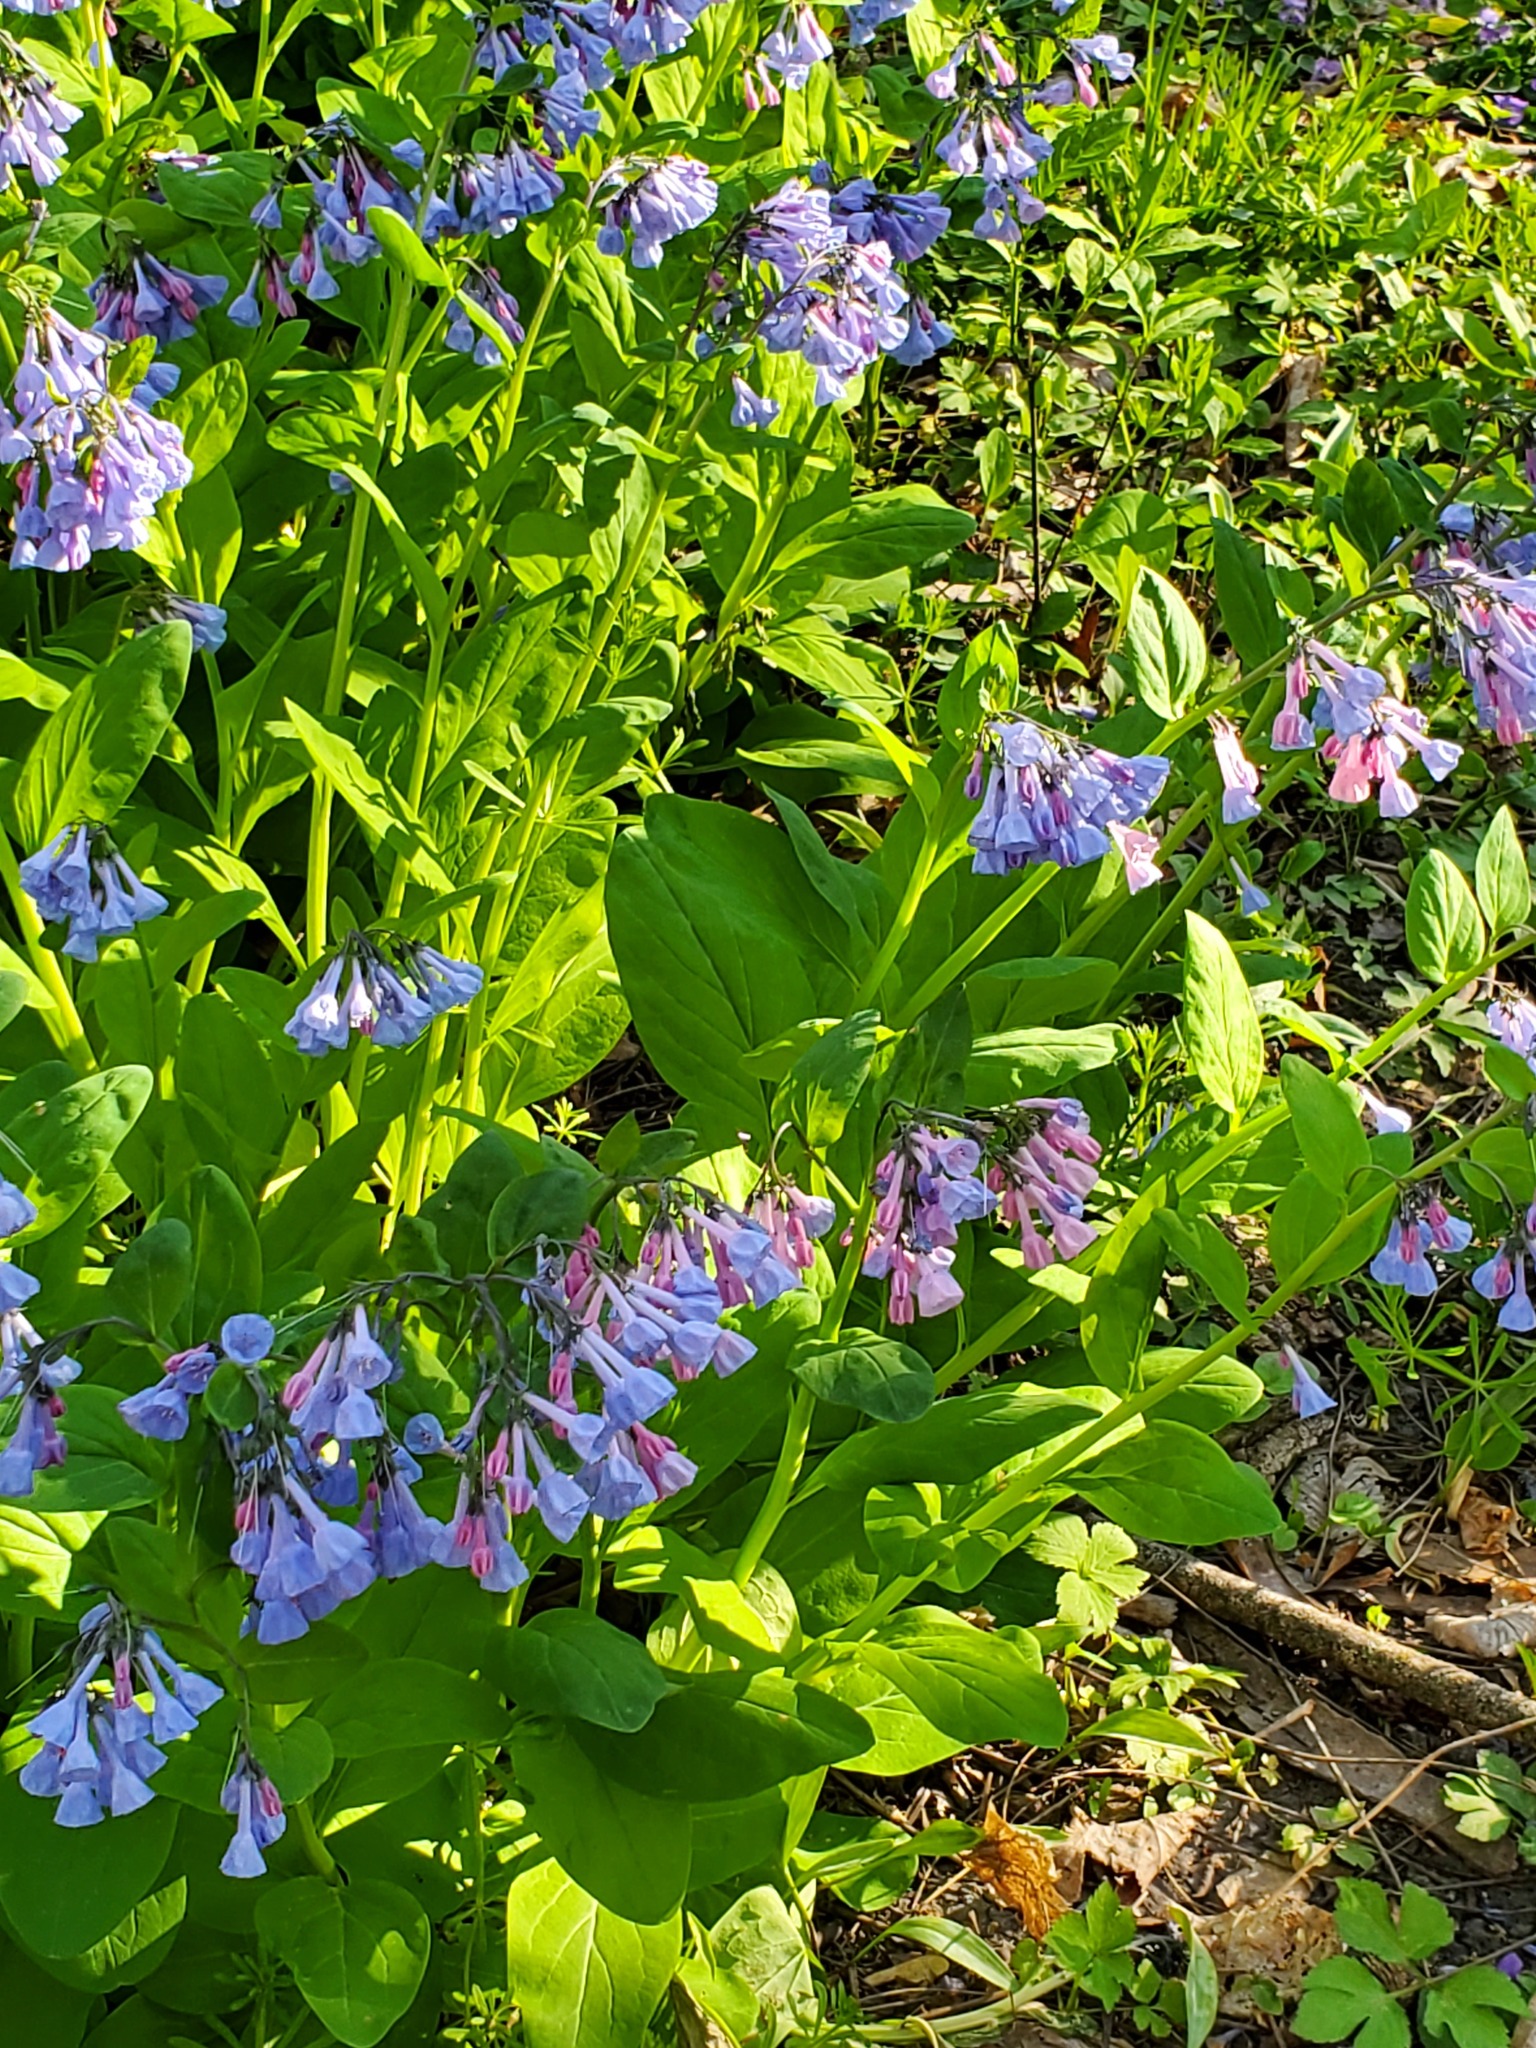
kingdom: Plantae
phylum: Tracheophyta
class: Magnoliopsida
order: Boraginales
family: Boraginaceae
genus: Mertensia
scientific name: Mertensia virginica
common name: Virginia bluebells
